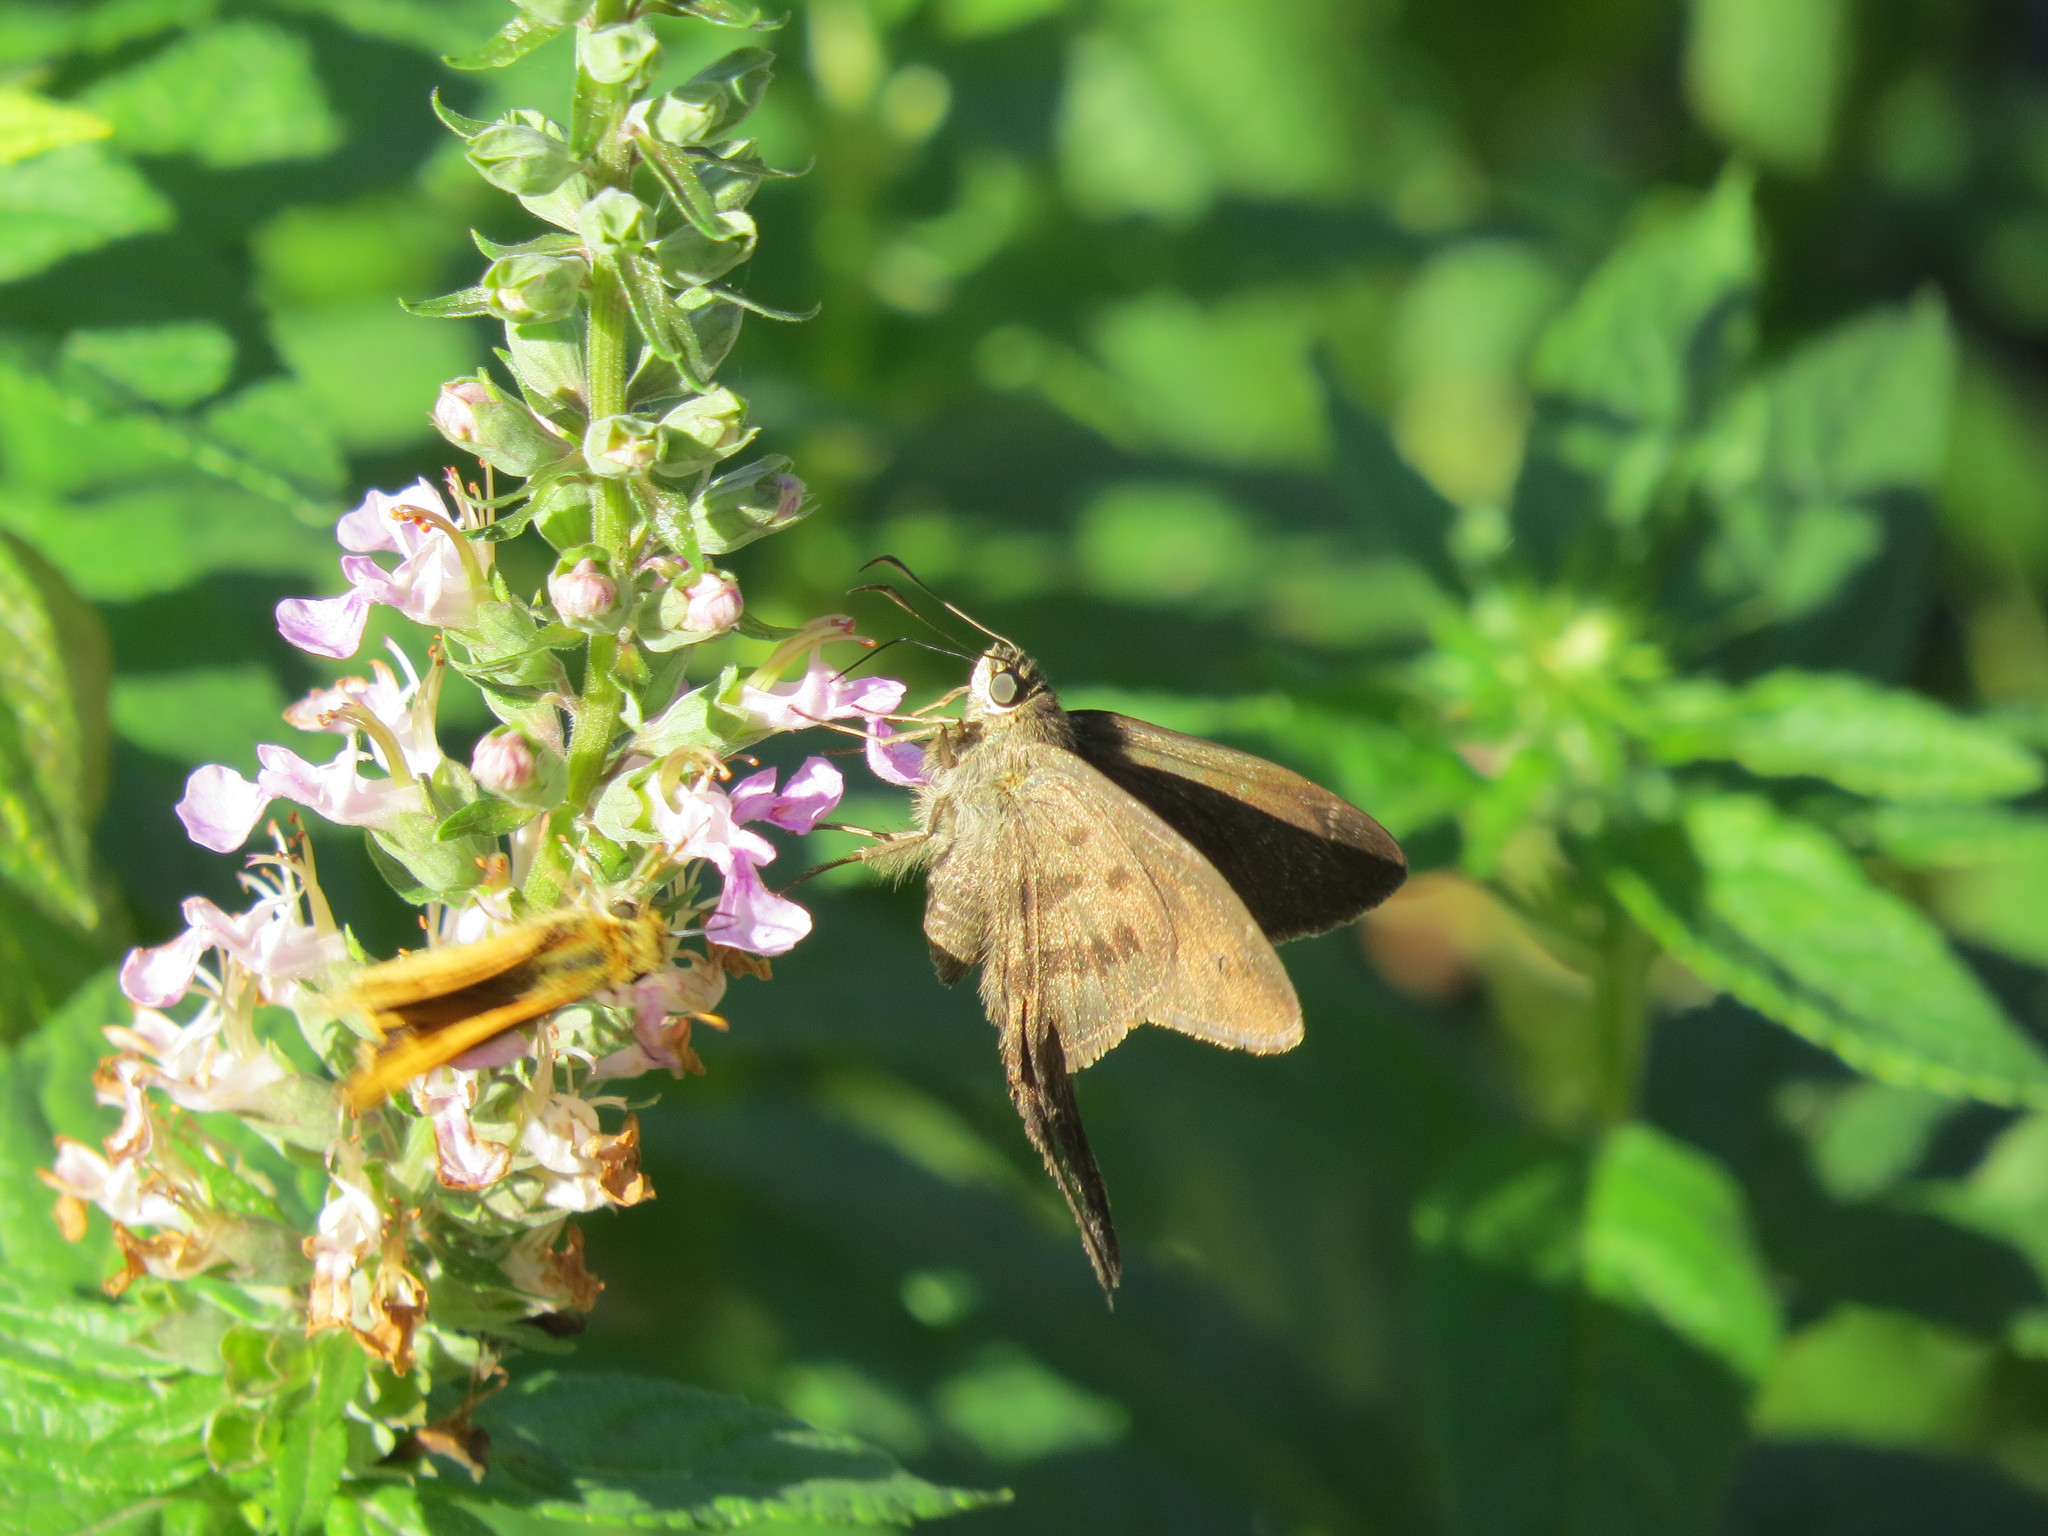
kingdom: Animalia
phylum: Arthropoda
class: Insecta
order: Lepidoptera
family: Hesperiidae
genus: Urbanus
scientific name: Urbanus procne
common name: Brown longtail
